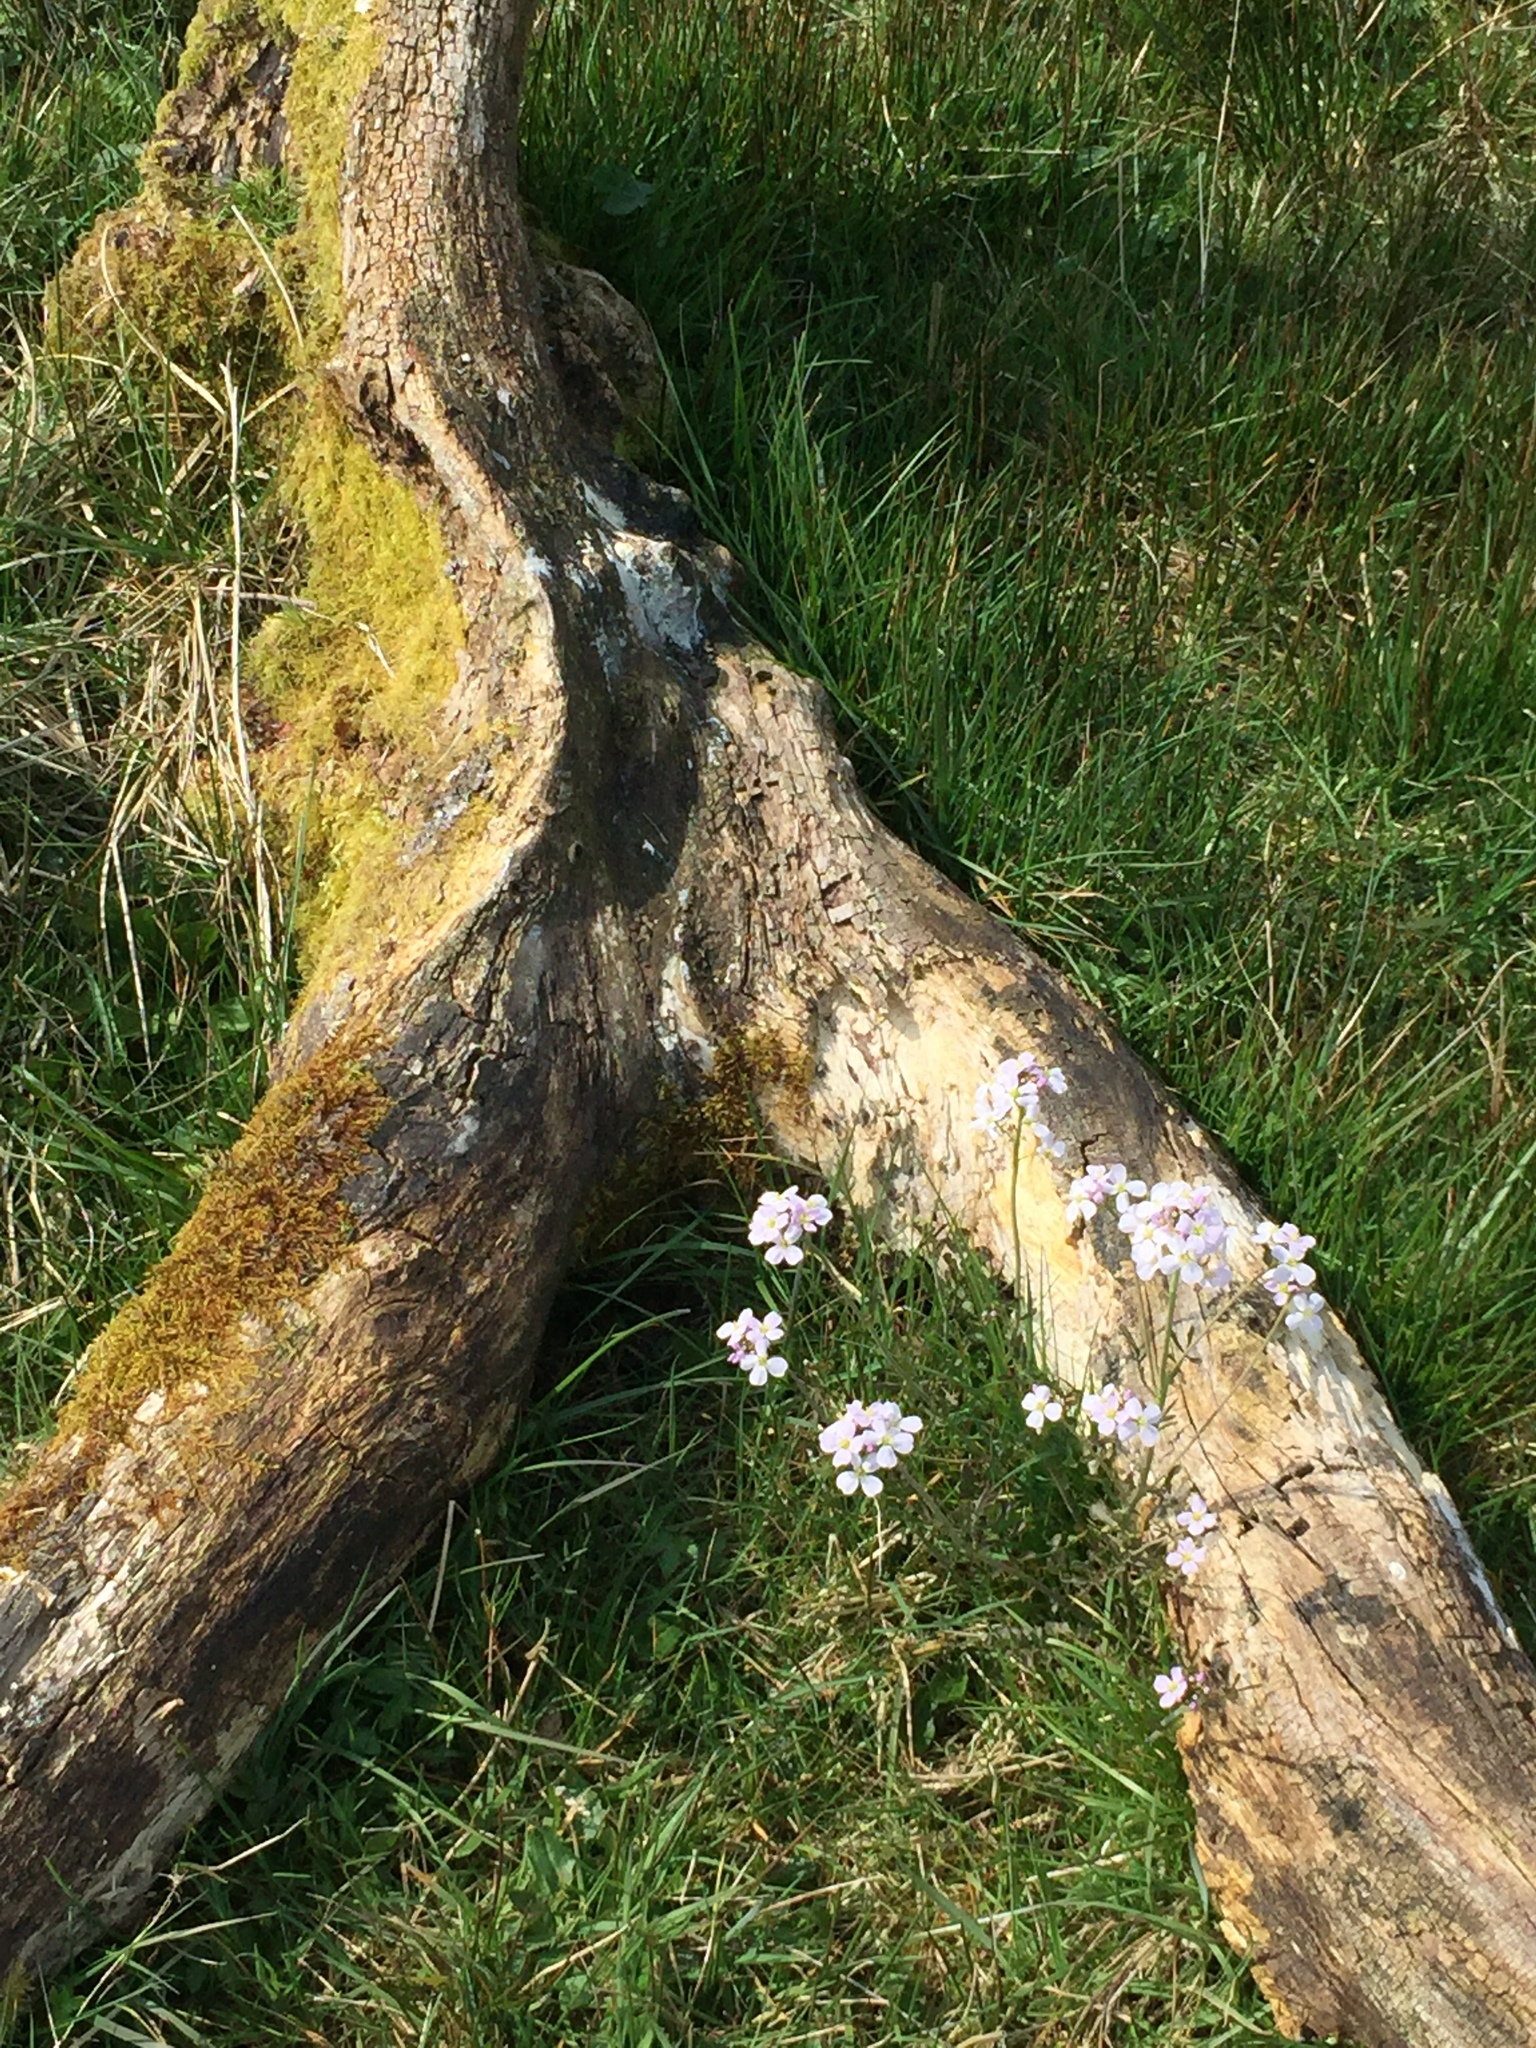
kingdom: Plantae
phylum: Tracheophyta
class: Magnoliopsida
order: Brassicales
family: Brassicaceae
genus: Cardamine
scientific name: Cardamine pratensis
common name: Cuckoo flower
